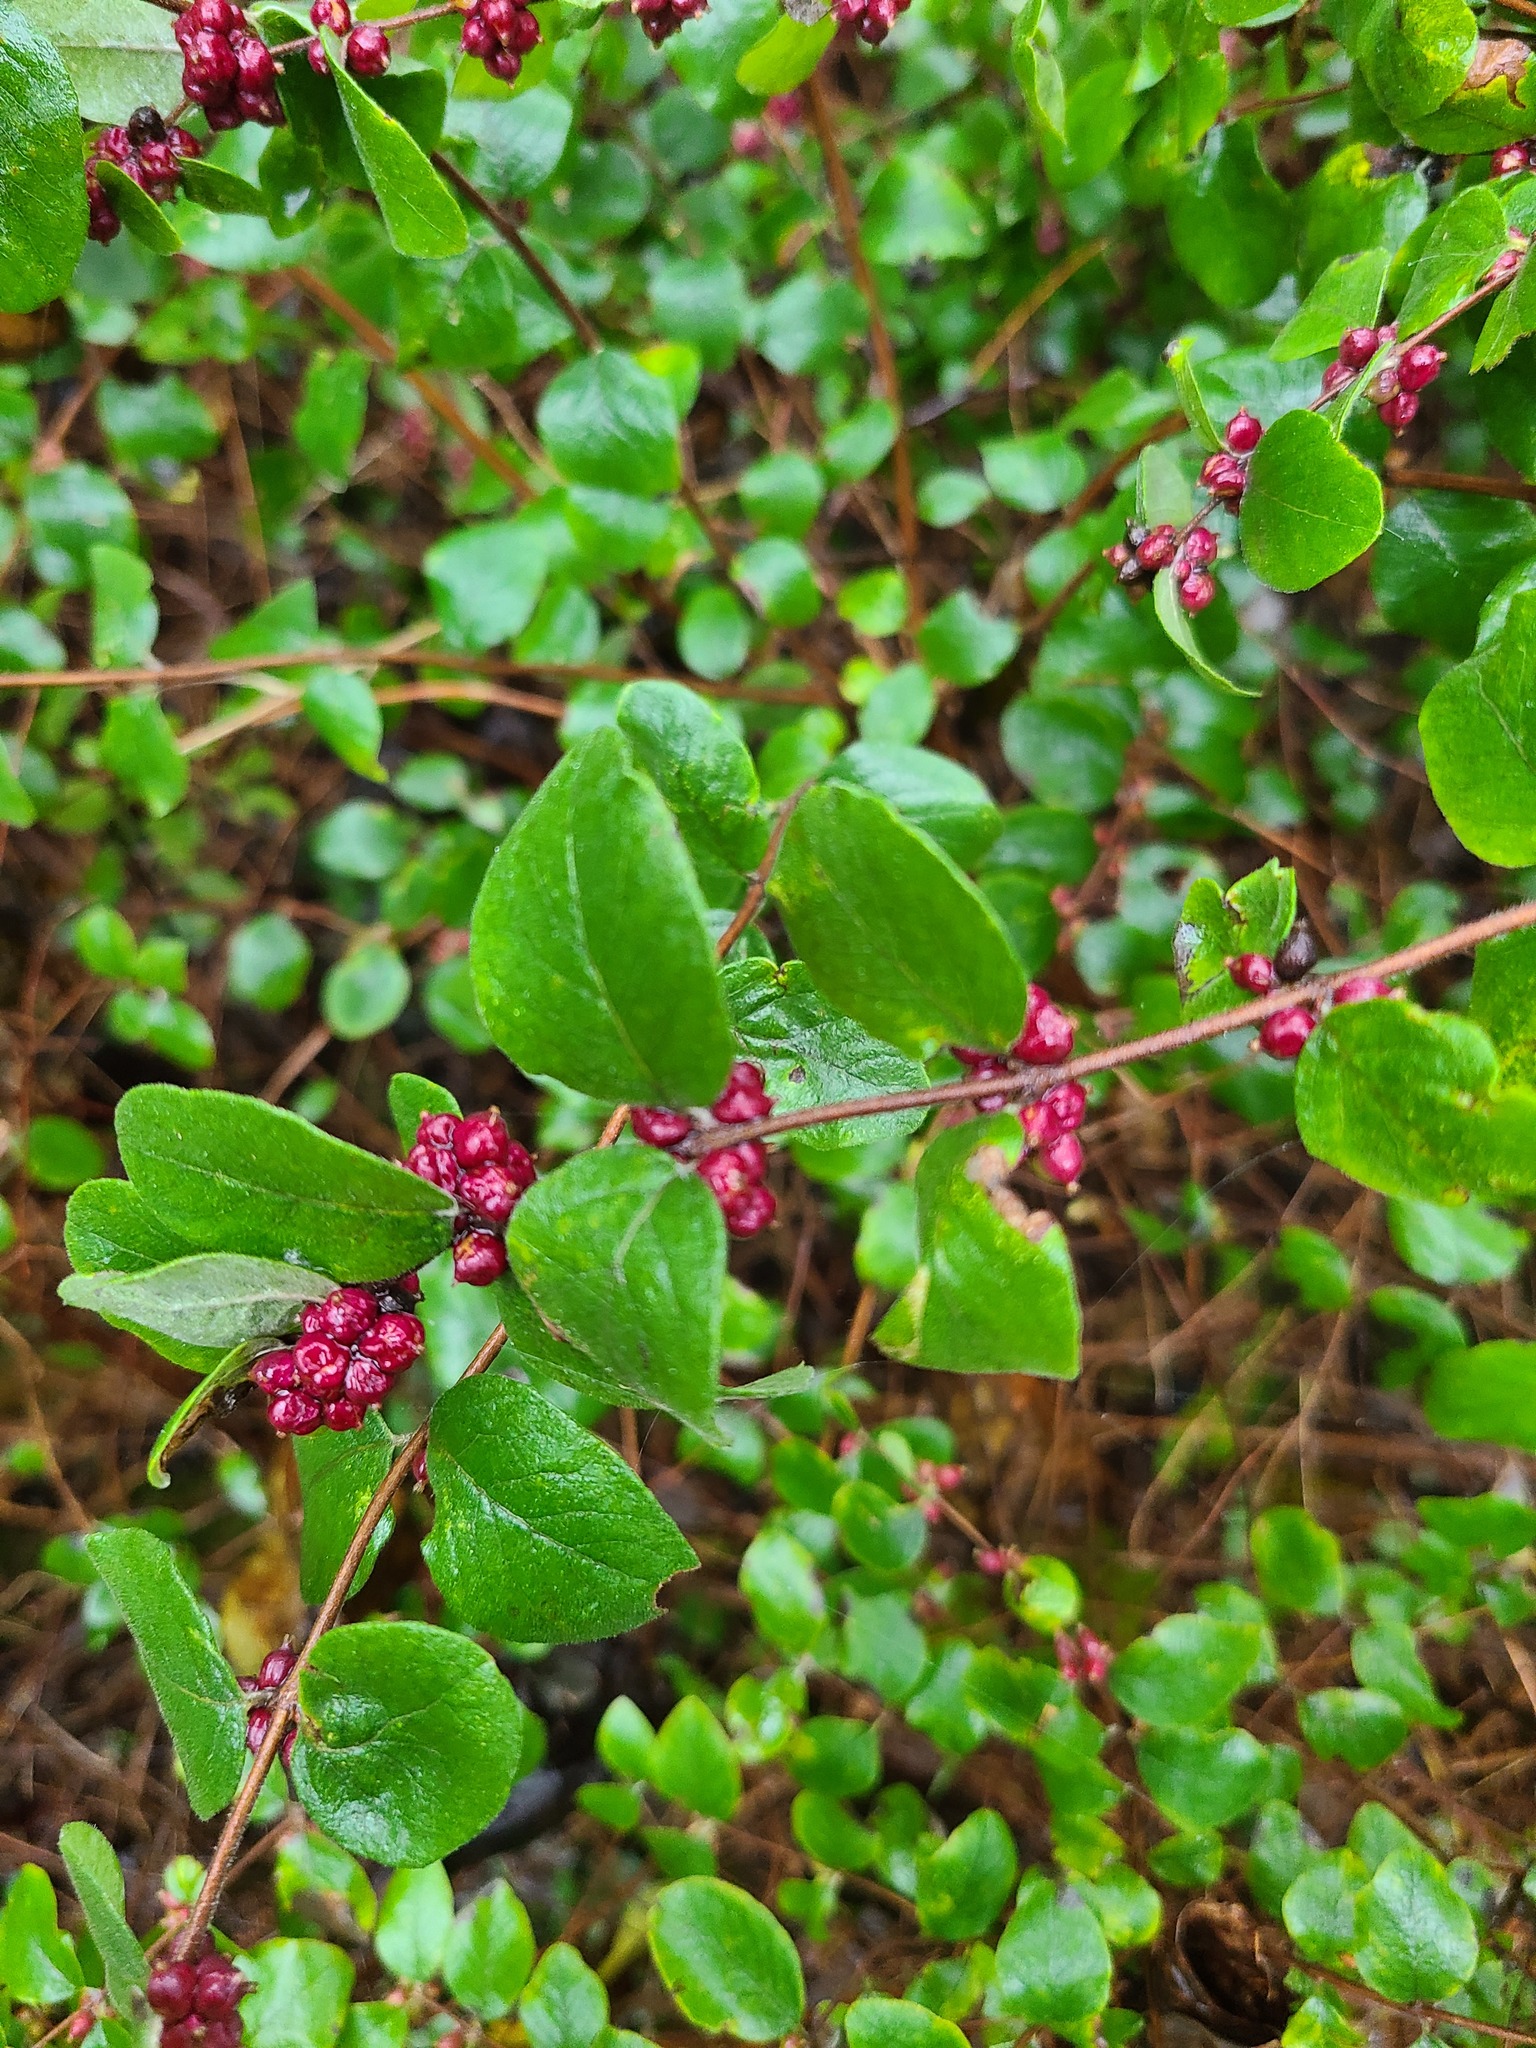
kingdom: Plantae
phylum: Tracheophyta
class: Magnoliopsida
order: Dipsacales
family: Caprifoliaceae
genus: Symphoricarpos
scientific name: Symphoricarpos orbiculatus
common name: Coralberry
